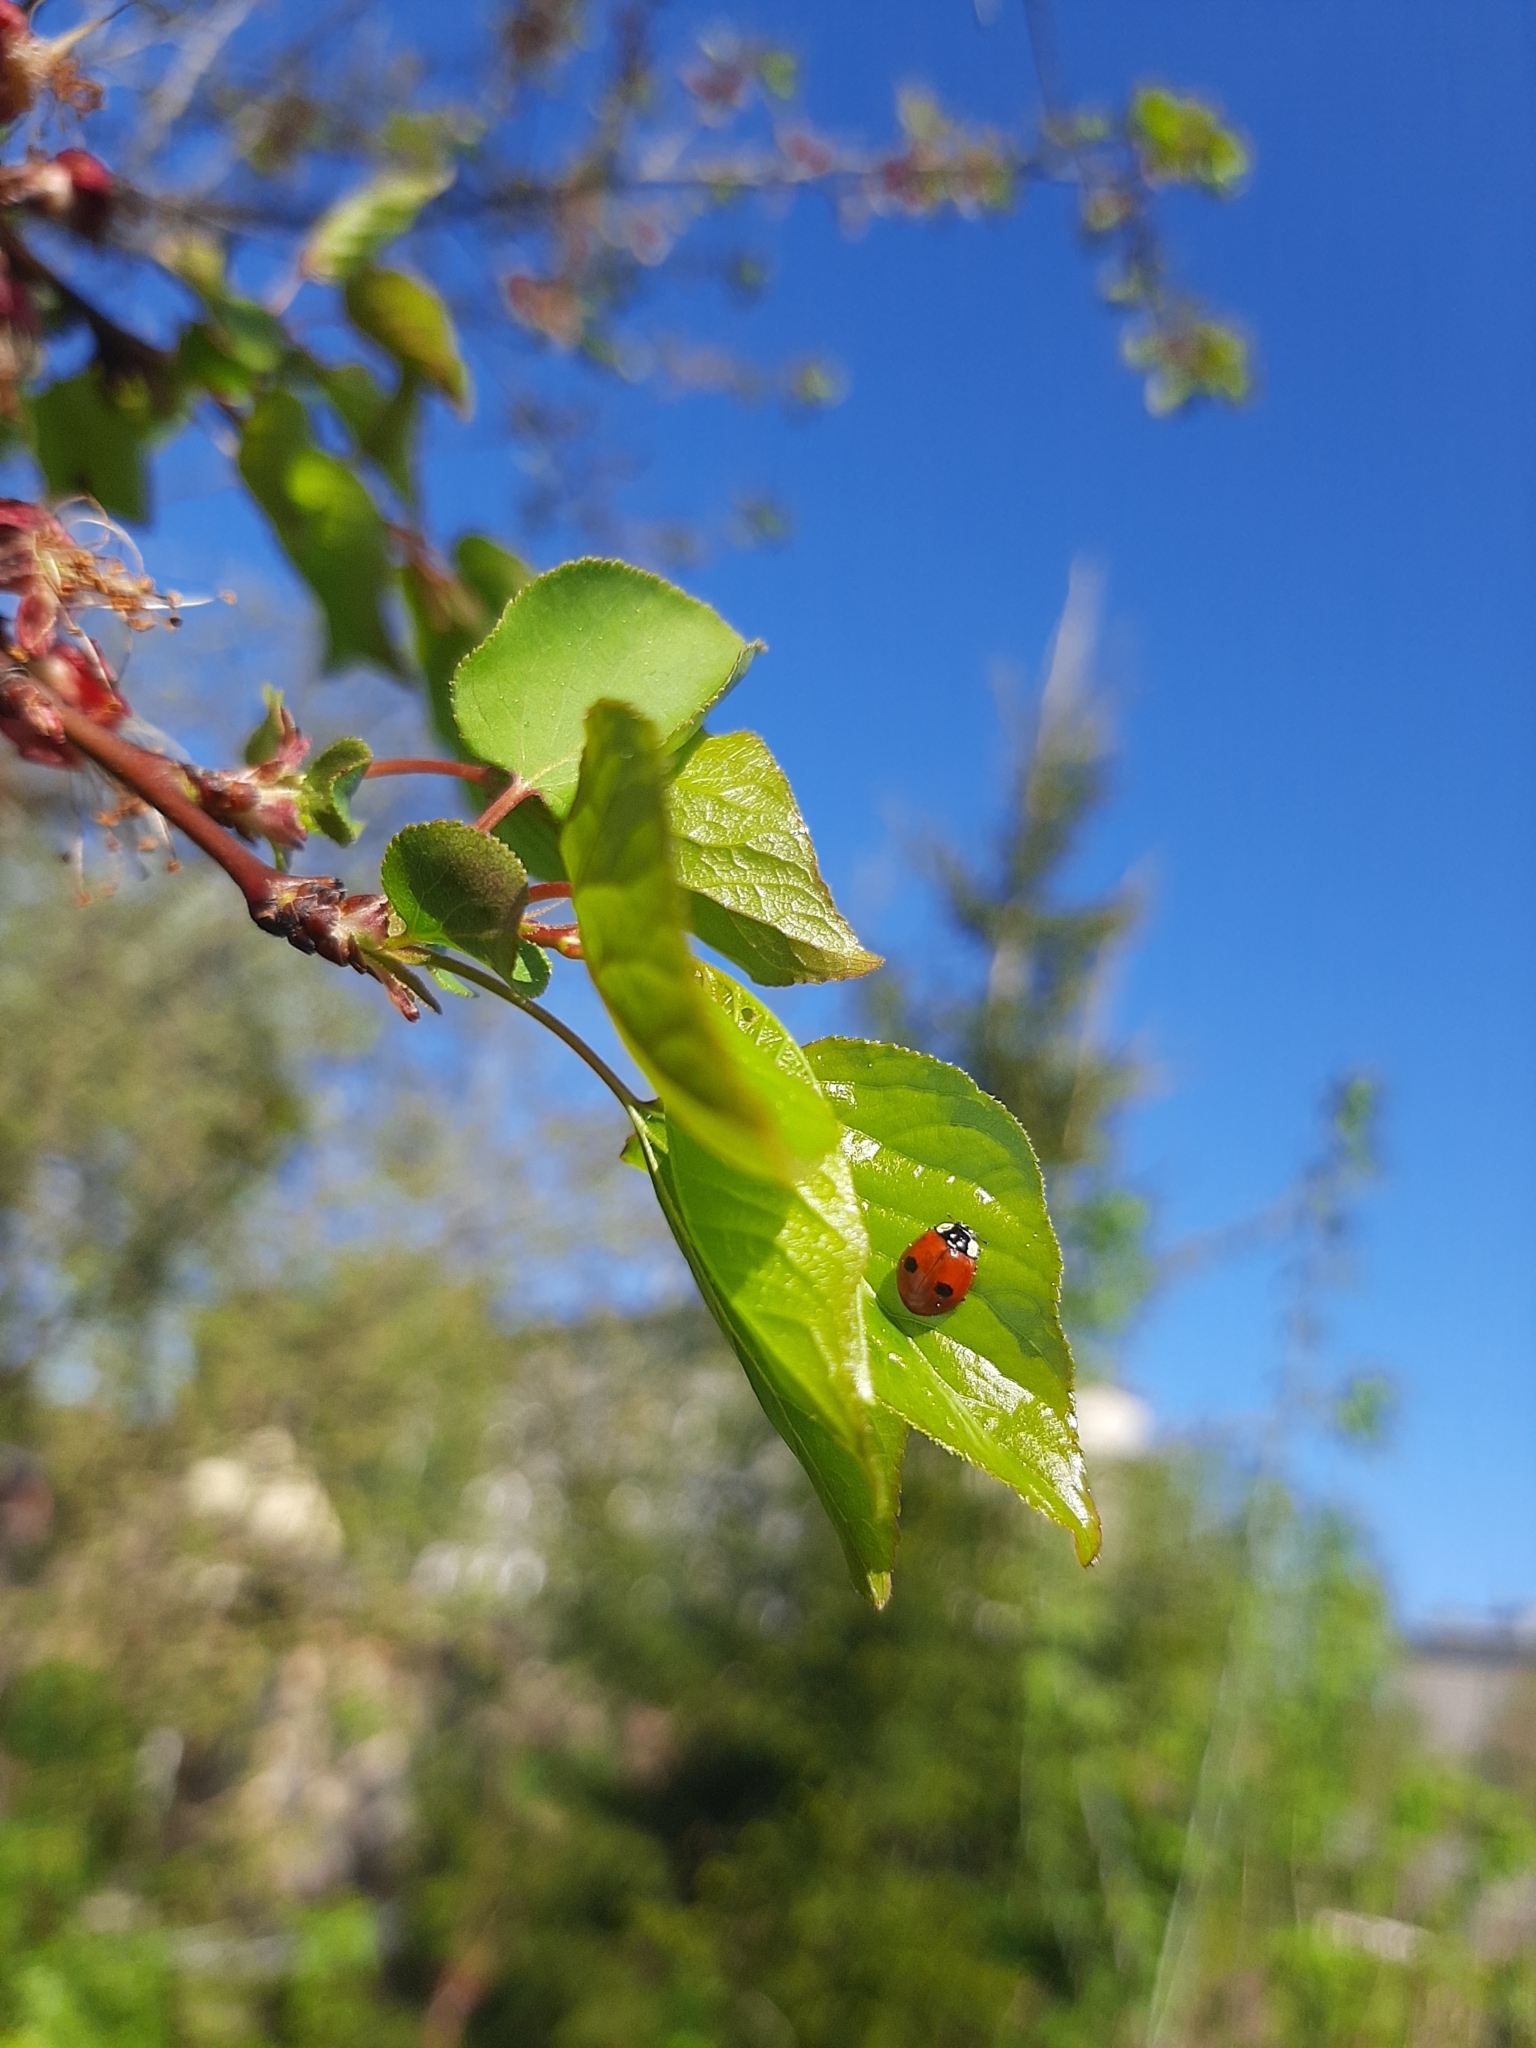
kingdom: Animalia
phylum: Arthropoda
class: Insecta
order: Coleoptera
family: Coccinellidae
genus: Adalia
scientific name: Adalia bipunctata
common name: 2-spot ladybird
